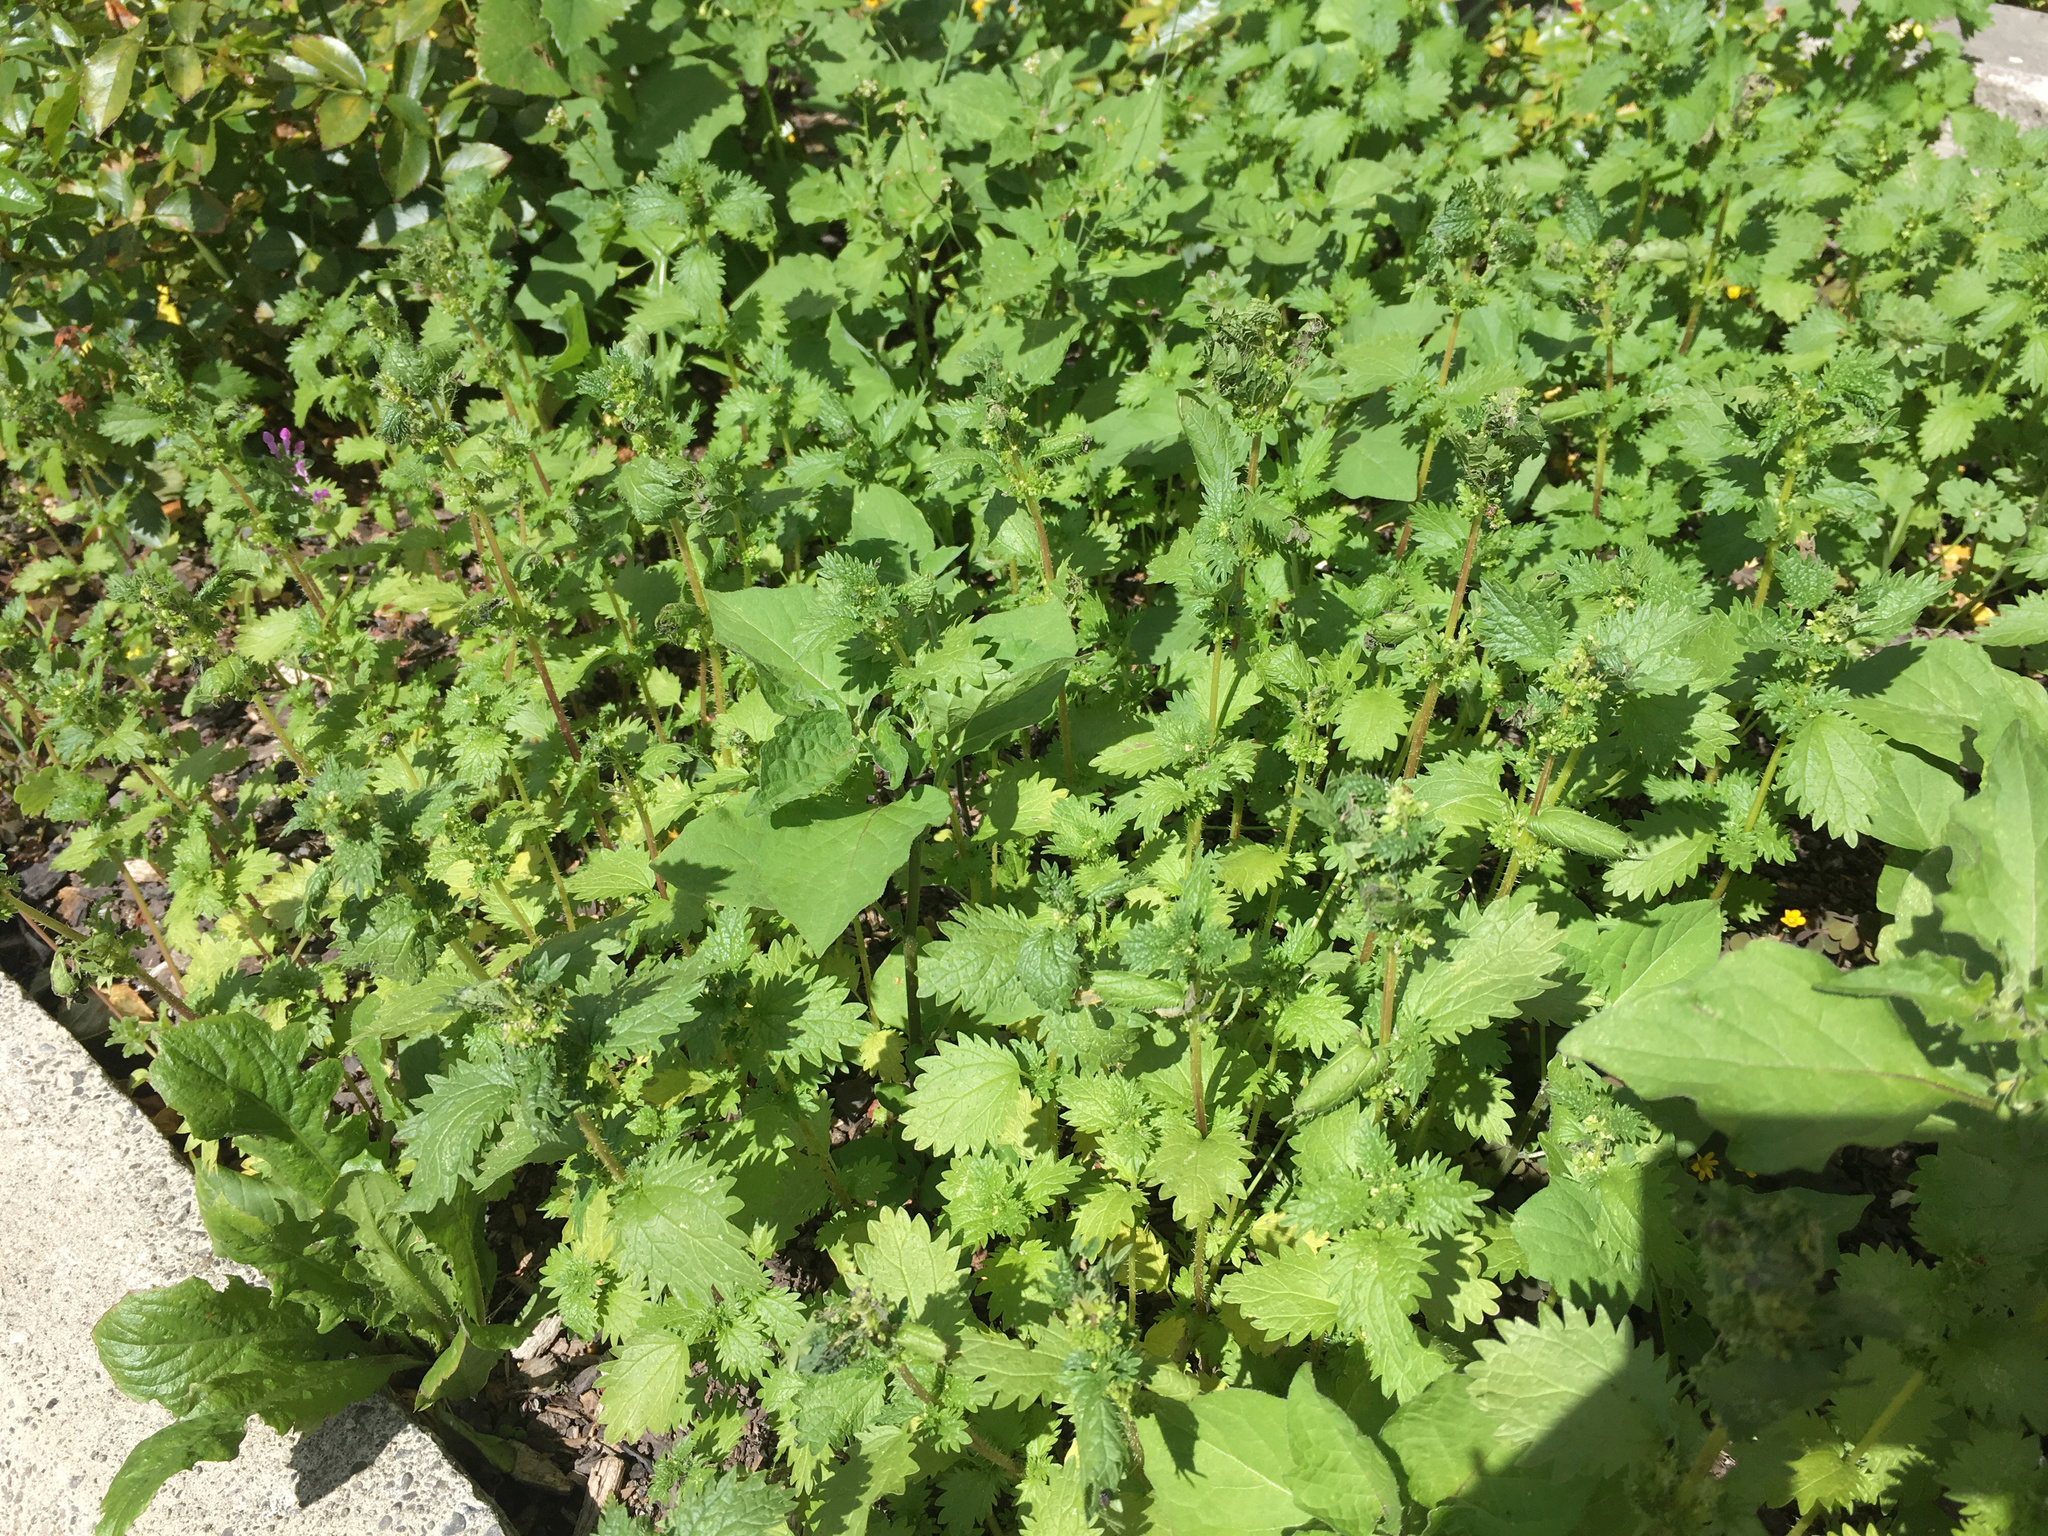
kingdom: Plantae
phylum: Tracheophyta
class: Magnoliopsida
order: Rosales
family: Urticaceae
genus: Urtica
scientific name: Urtica urens
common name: Dwarf nettle
